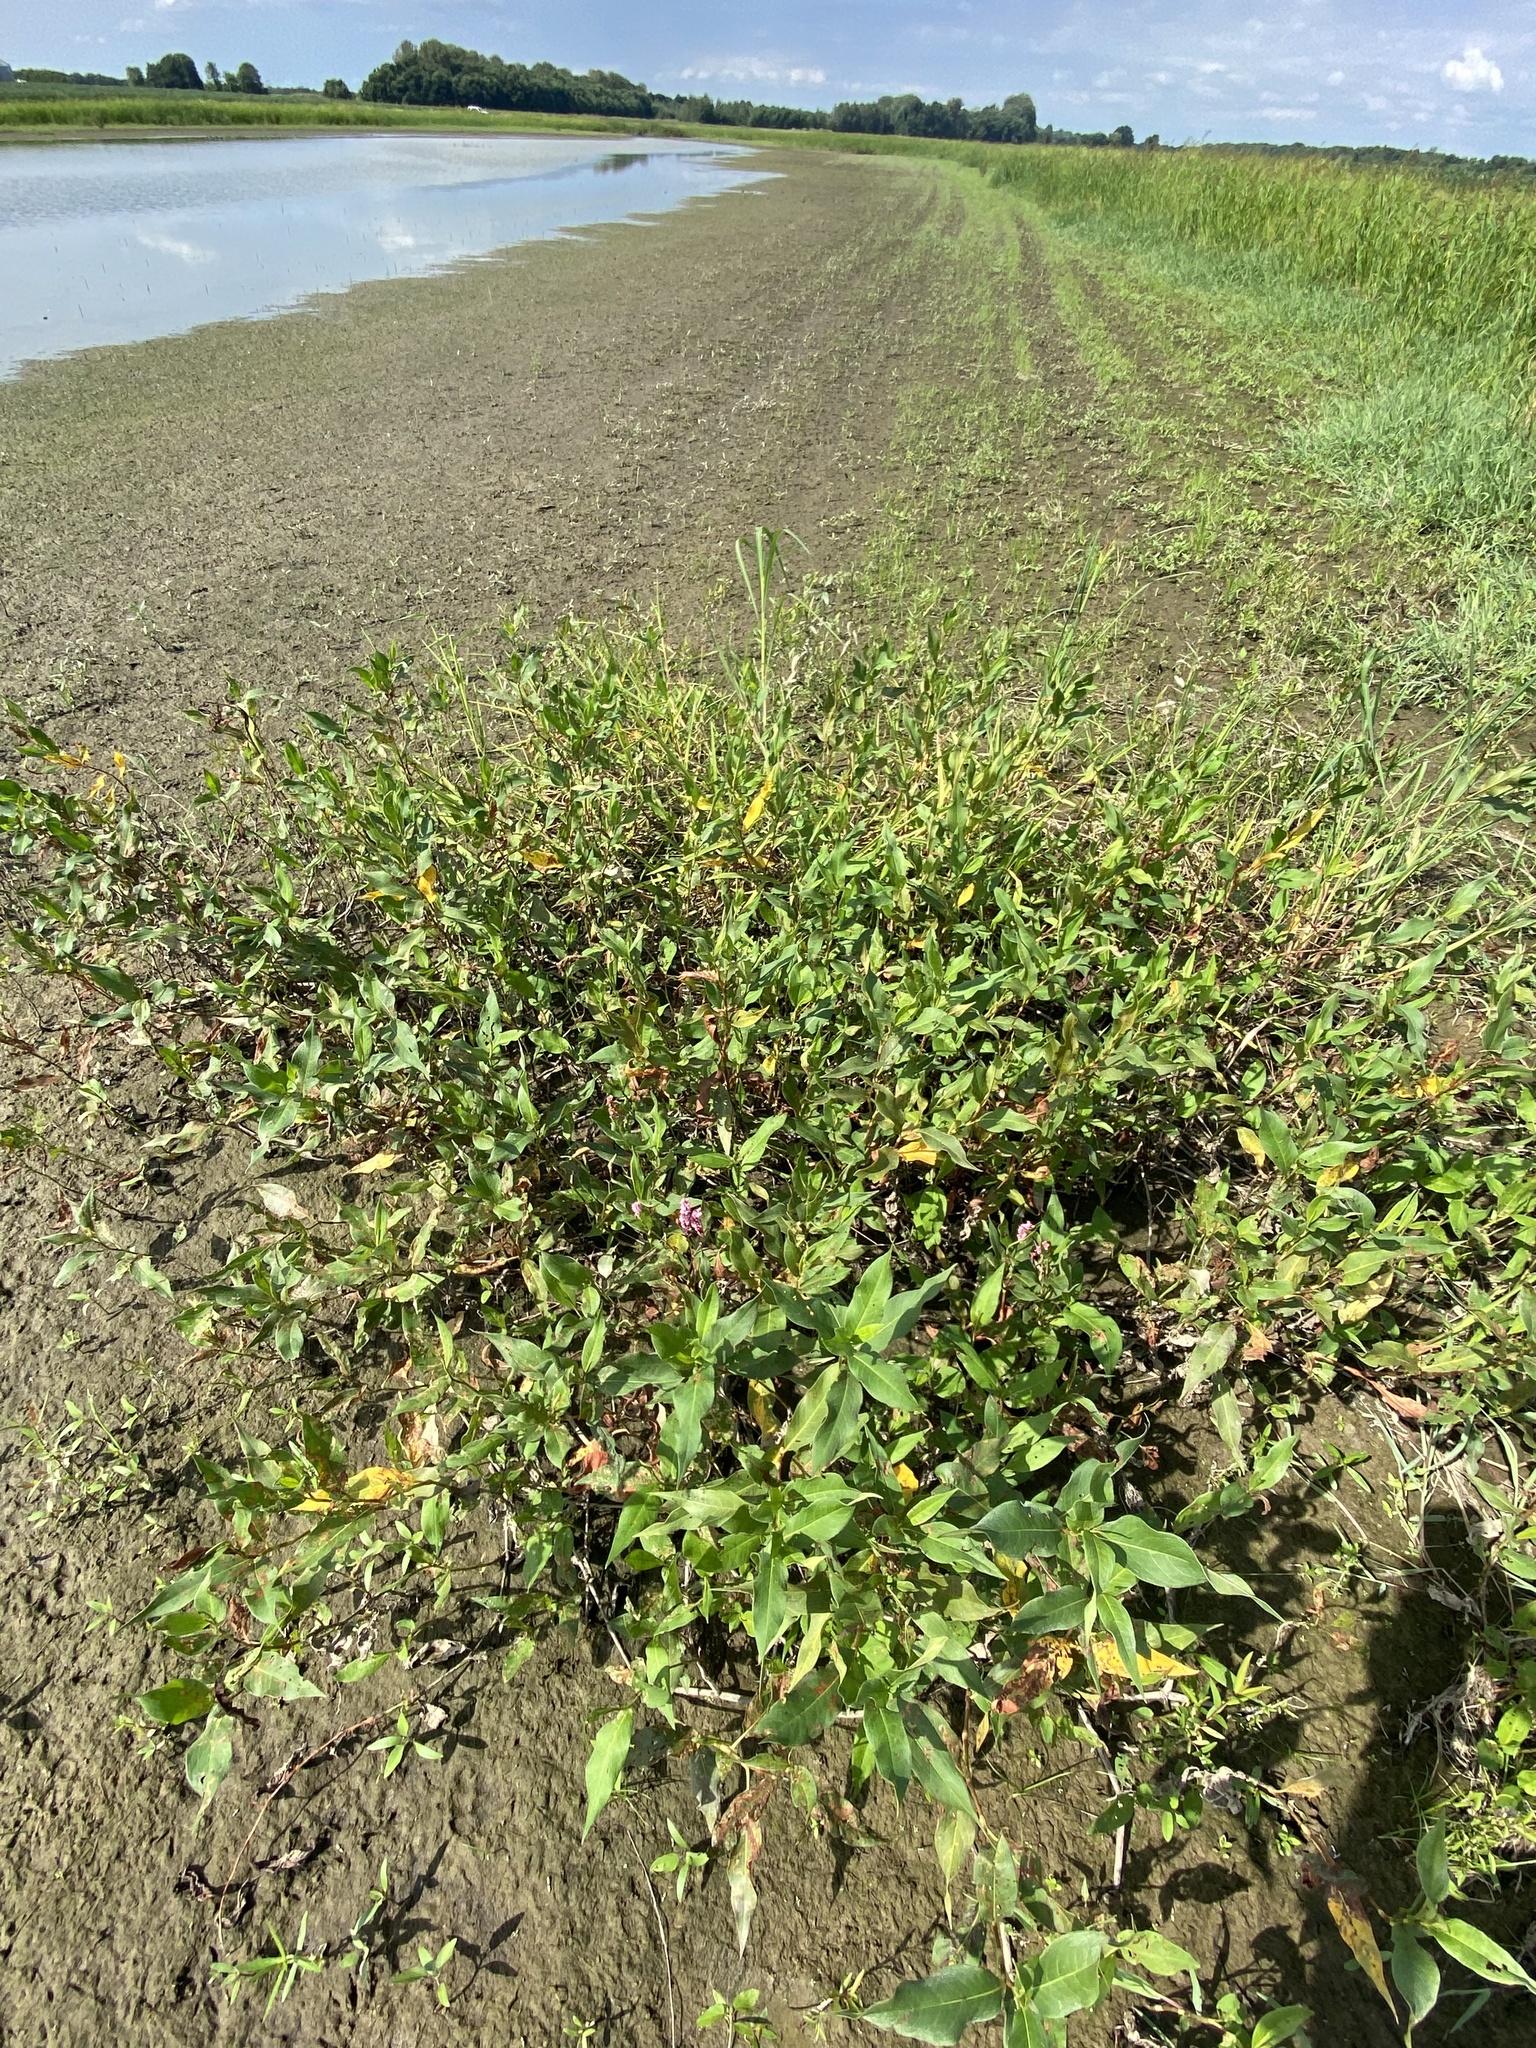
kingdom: Plantae
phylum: Tracheophyta
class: Magnoliopsida
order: Caryophyllales
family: Polygonaceae
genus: Persicaria
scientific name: Persicaria amphibia
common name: Amphibious bistort
